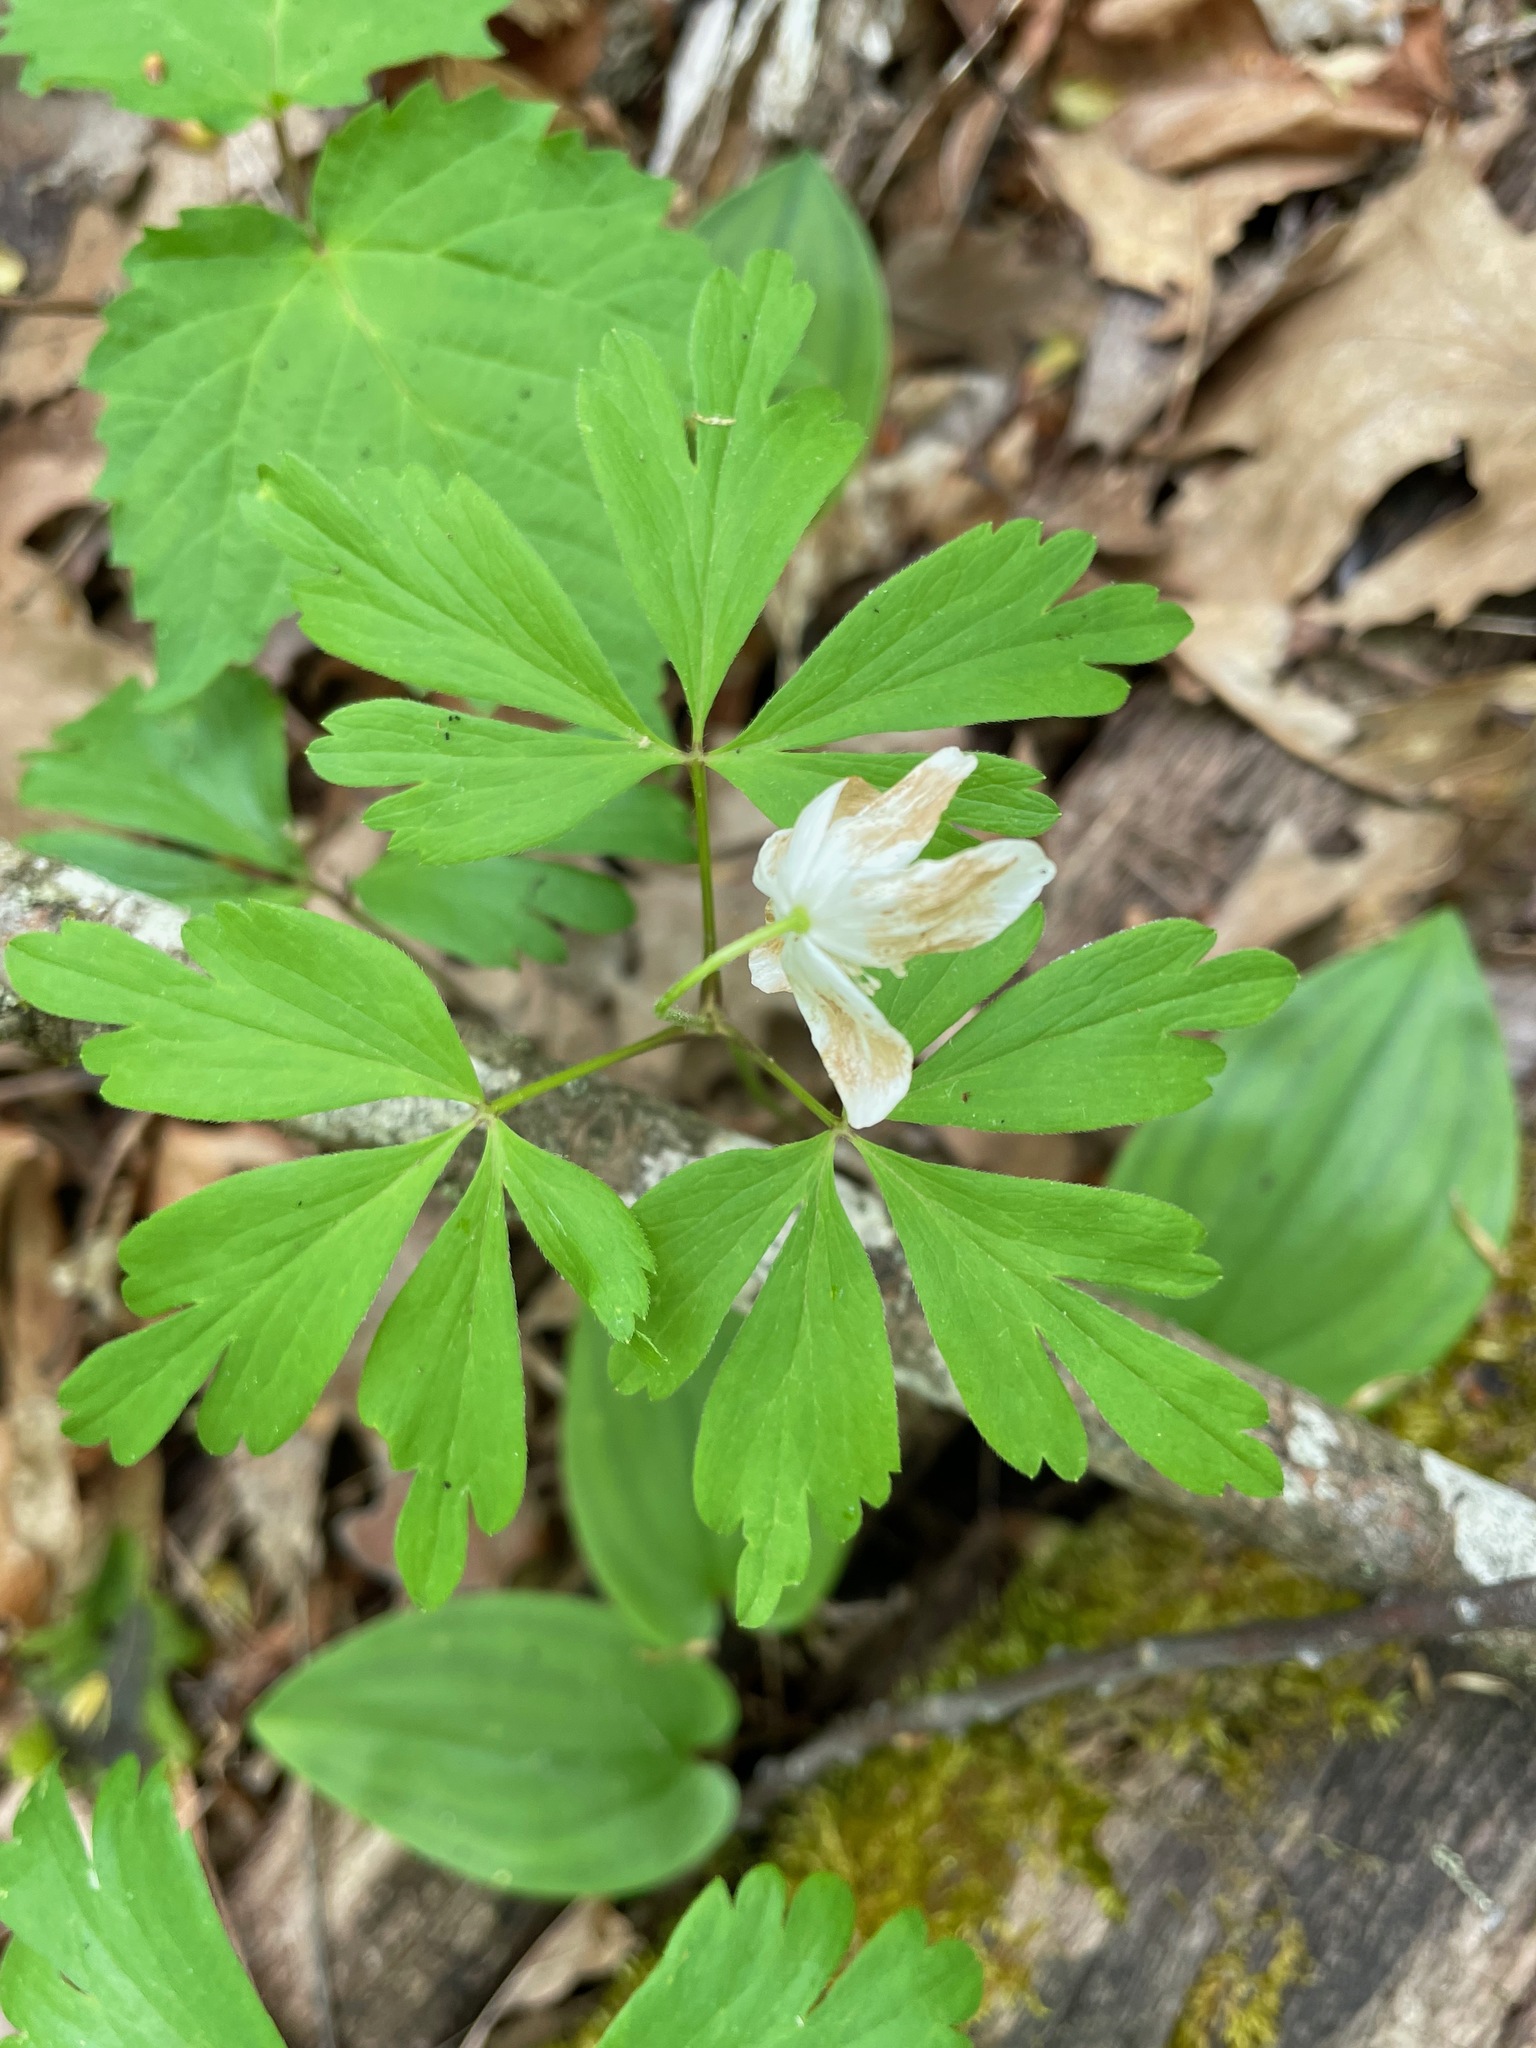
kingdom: Plantae
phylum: Tracheophyta
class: Magnoliopsida
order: Ranunculales
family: Ranunculaceae
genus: Anemone
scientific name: Anemone quinquefolia
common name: Wood anemone
